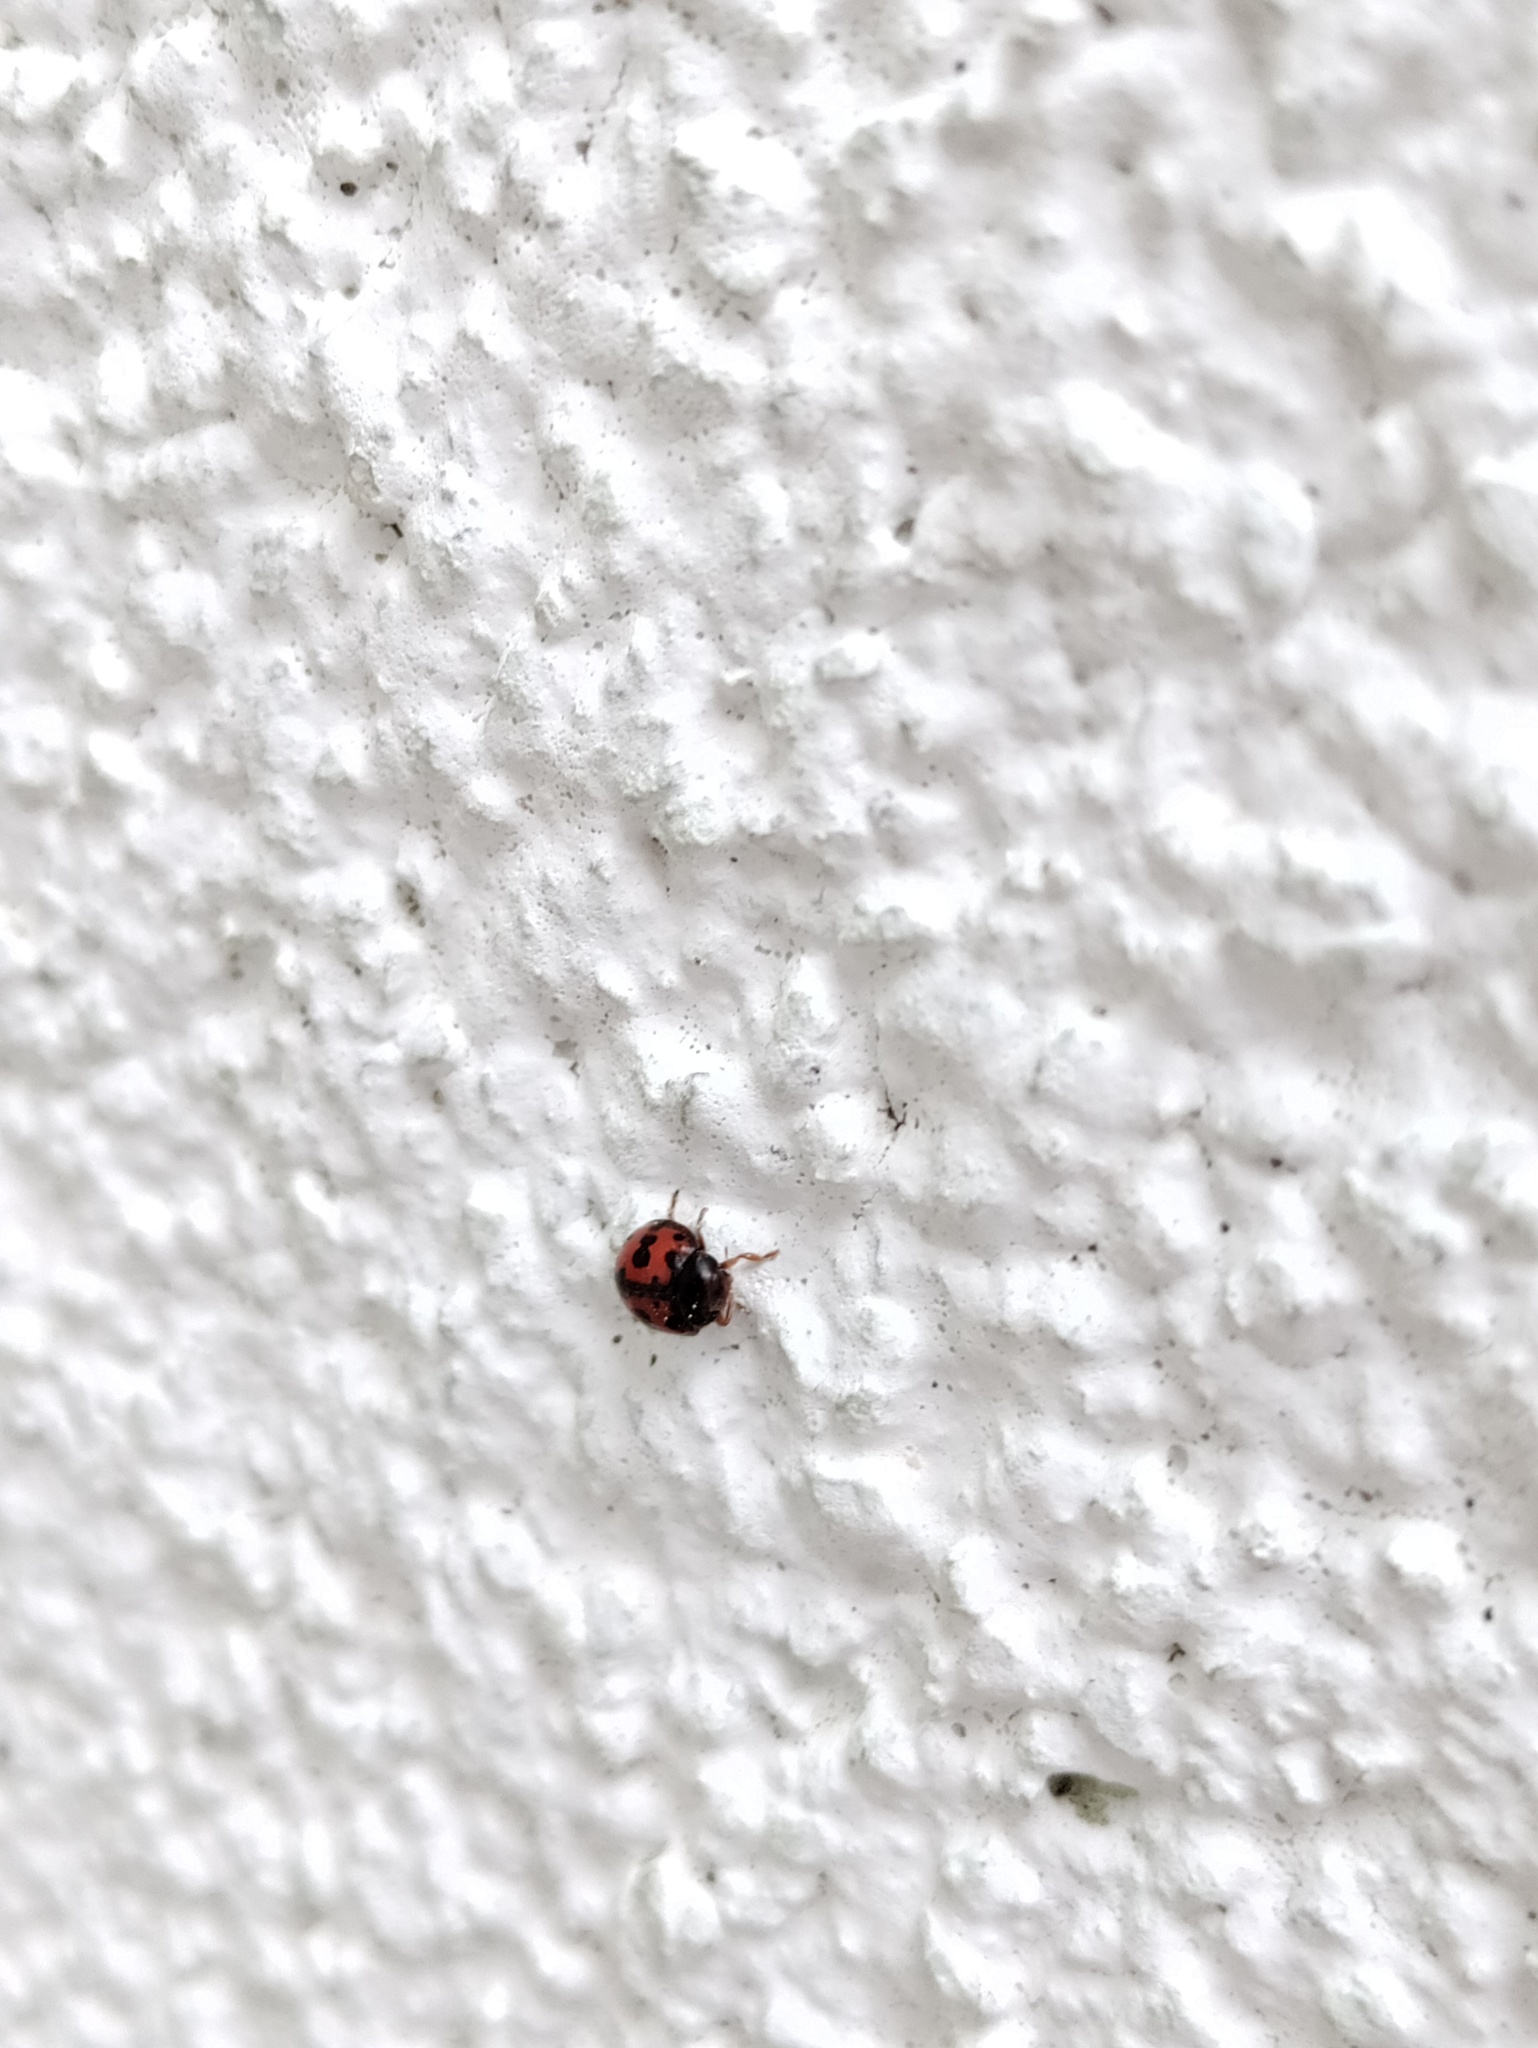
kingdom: Animalia
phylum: Arthropoda
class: Insecta
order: Coleoptera
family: Coccinellidae
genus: Subcoccinella
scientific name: Subcoccinella vigintiquatuorpunctata
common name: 24-spot ladybird
